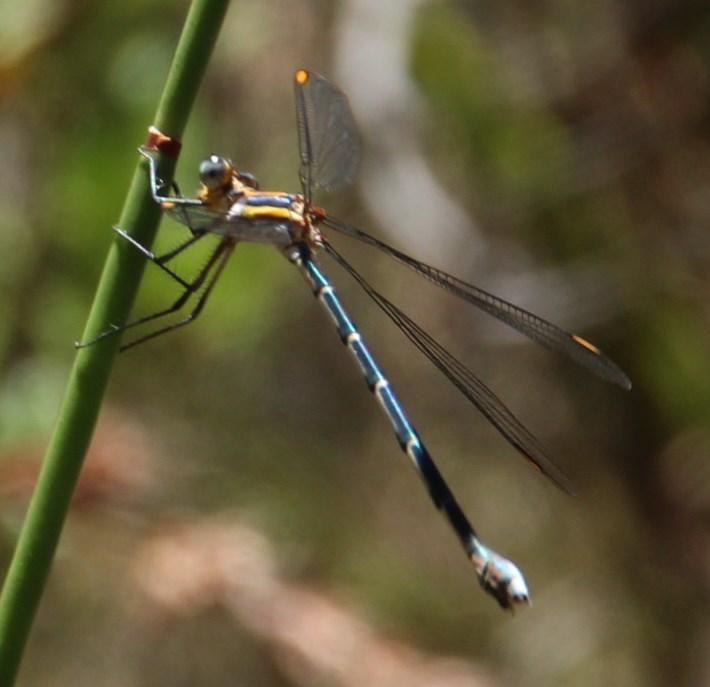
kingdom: Animalia
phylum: Arthropoda
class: Insecta
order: Odonata
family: Synlestidae
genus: Chlorolestes
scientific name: Chlorolestes conspicuus
